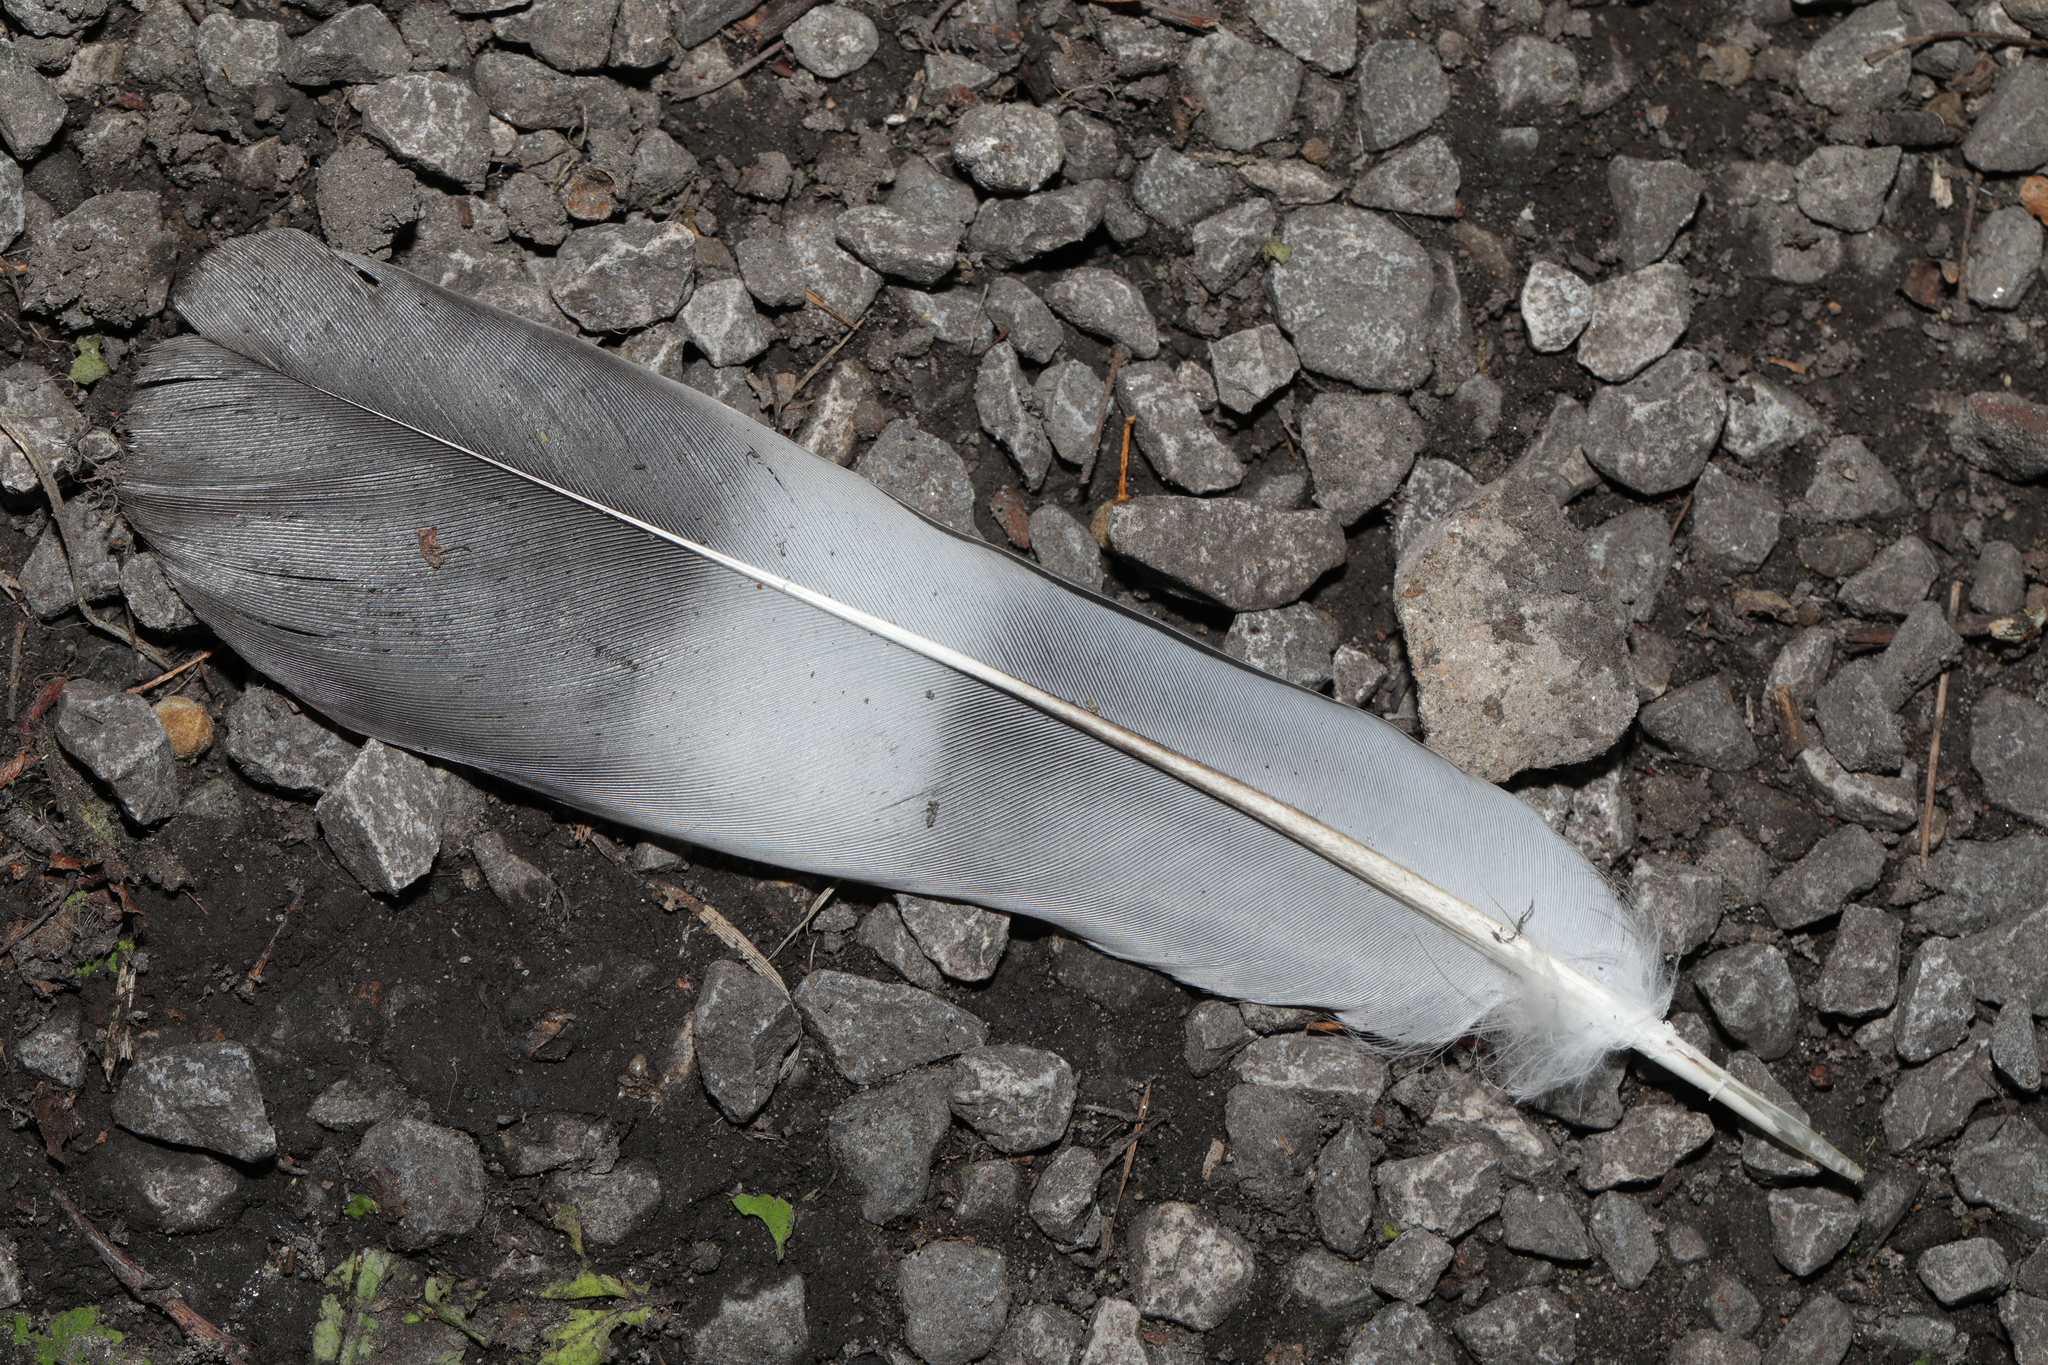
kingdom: Animalia
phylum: Chordata
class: Aves
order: Columbiformes
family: Columbidae
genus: Columba
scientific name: Columba palumbus
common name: Common wood pigeon
